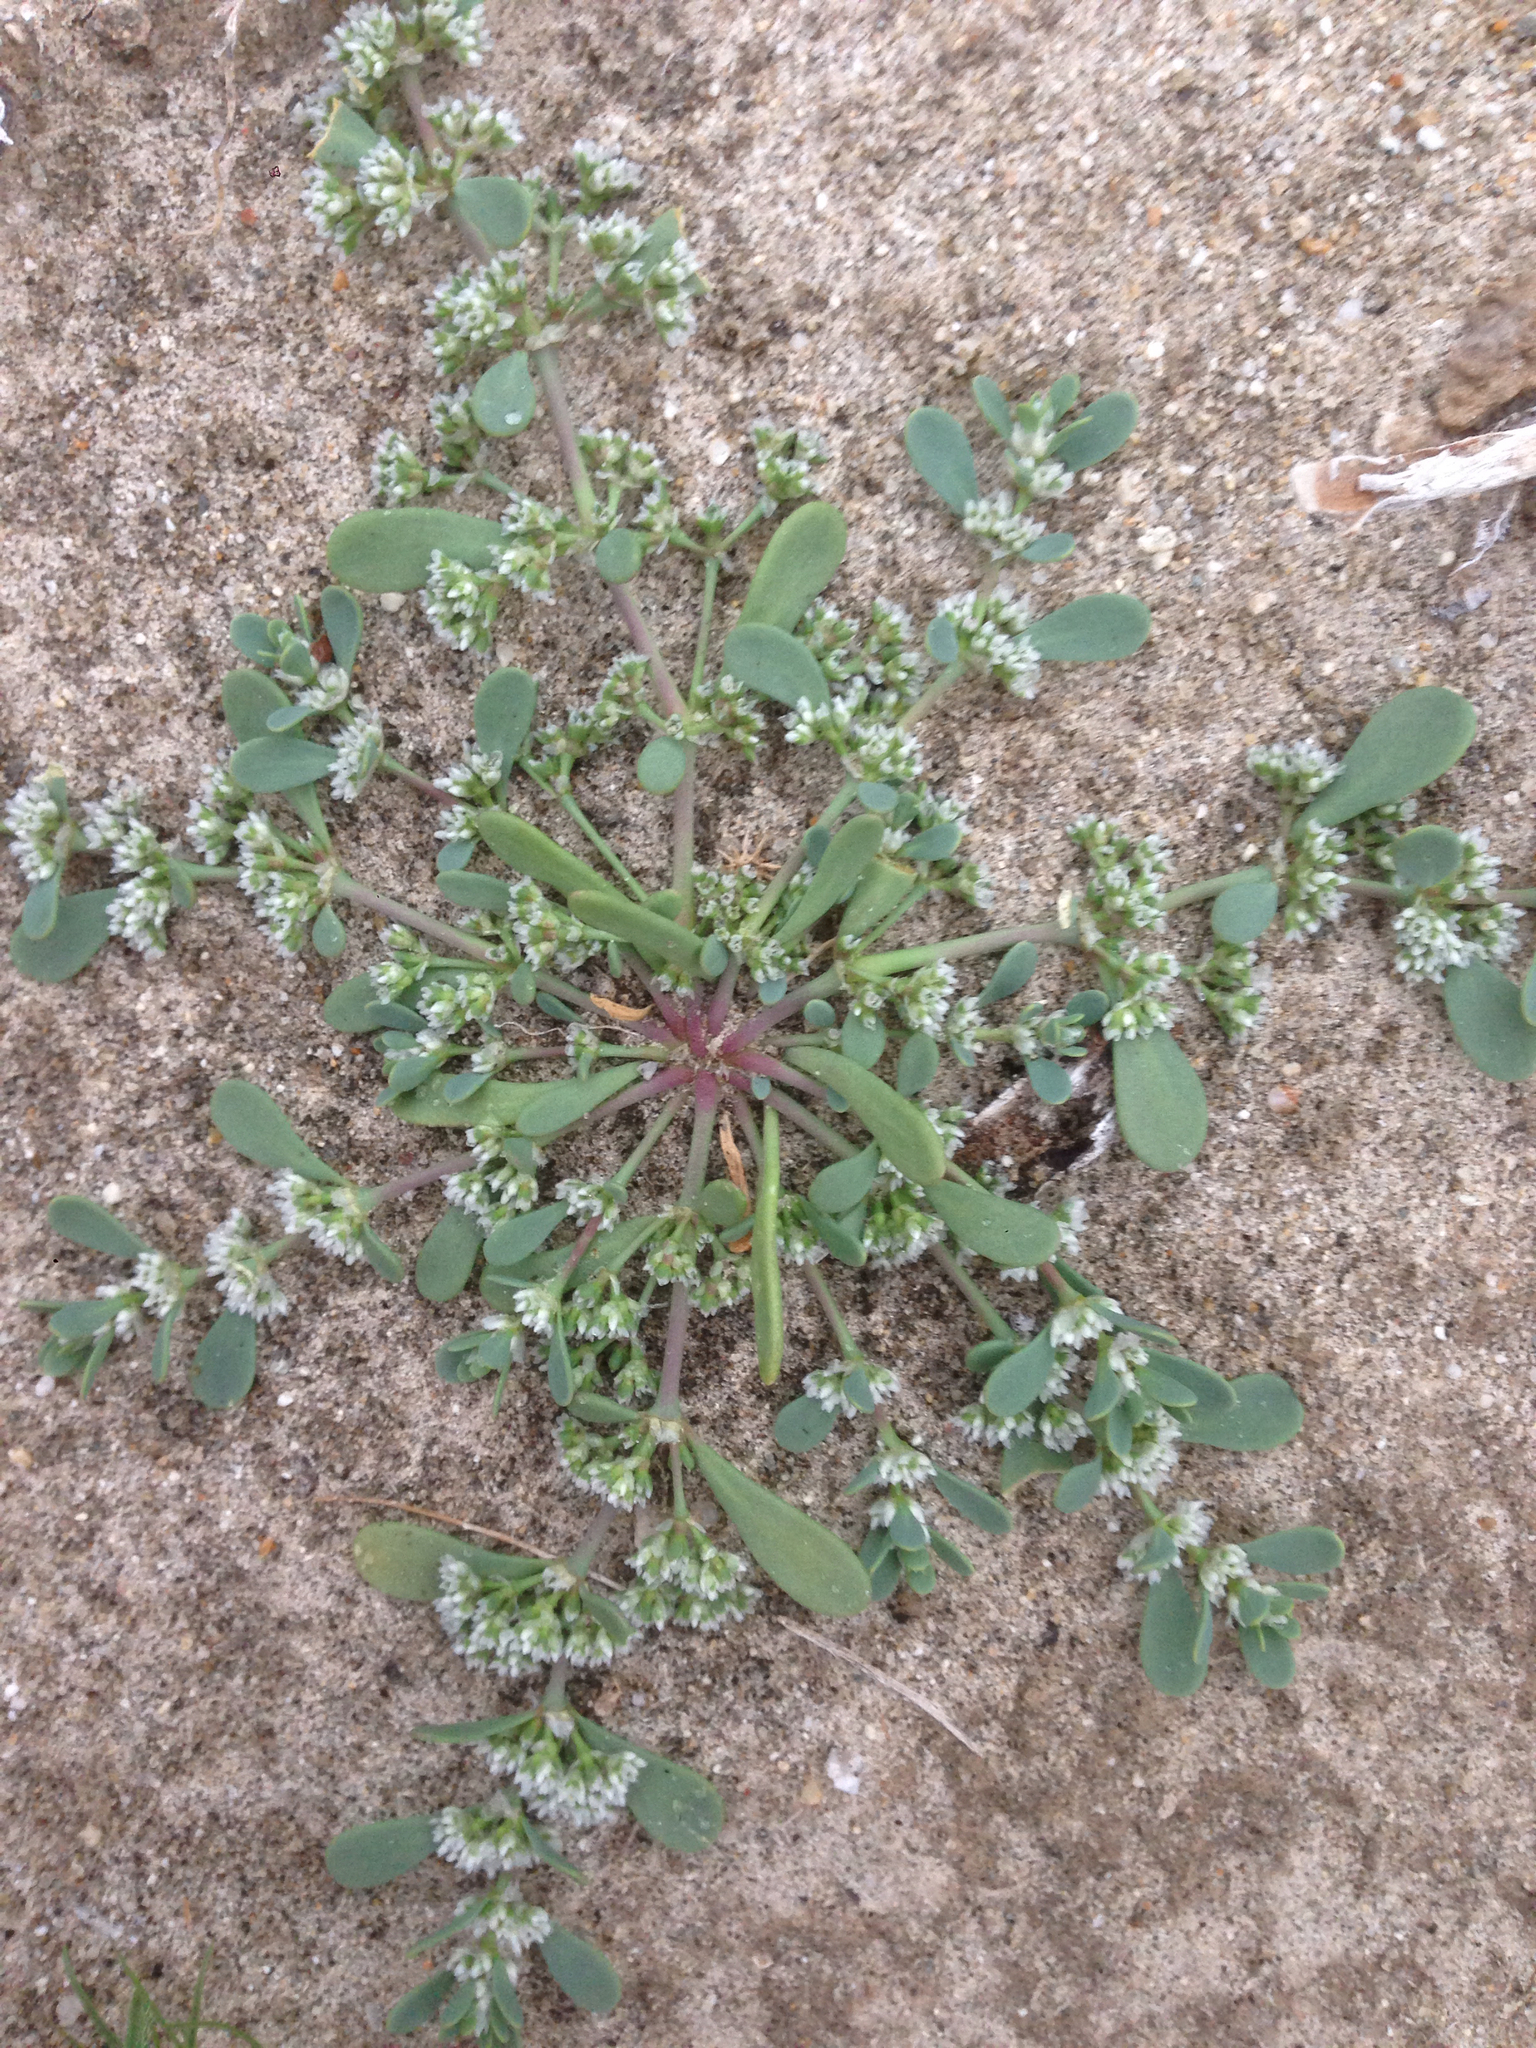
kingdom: Plantae
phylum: Tracheophyta
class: Magnoliopsida
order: Caryophyllales
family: Caryophyllaceae
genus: Achyronychia
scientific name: Achyronychia cooperi
